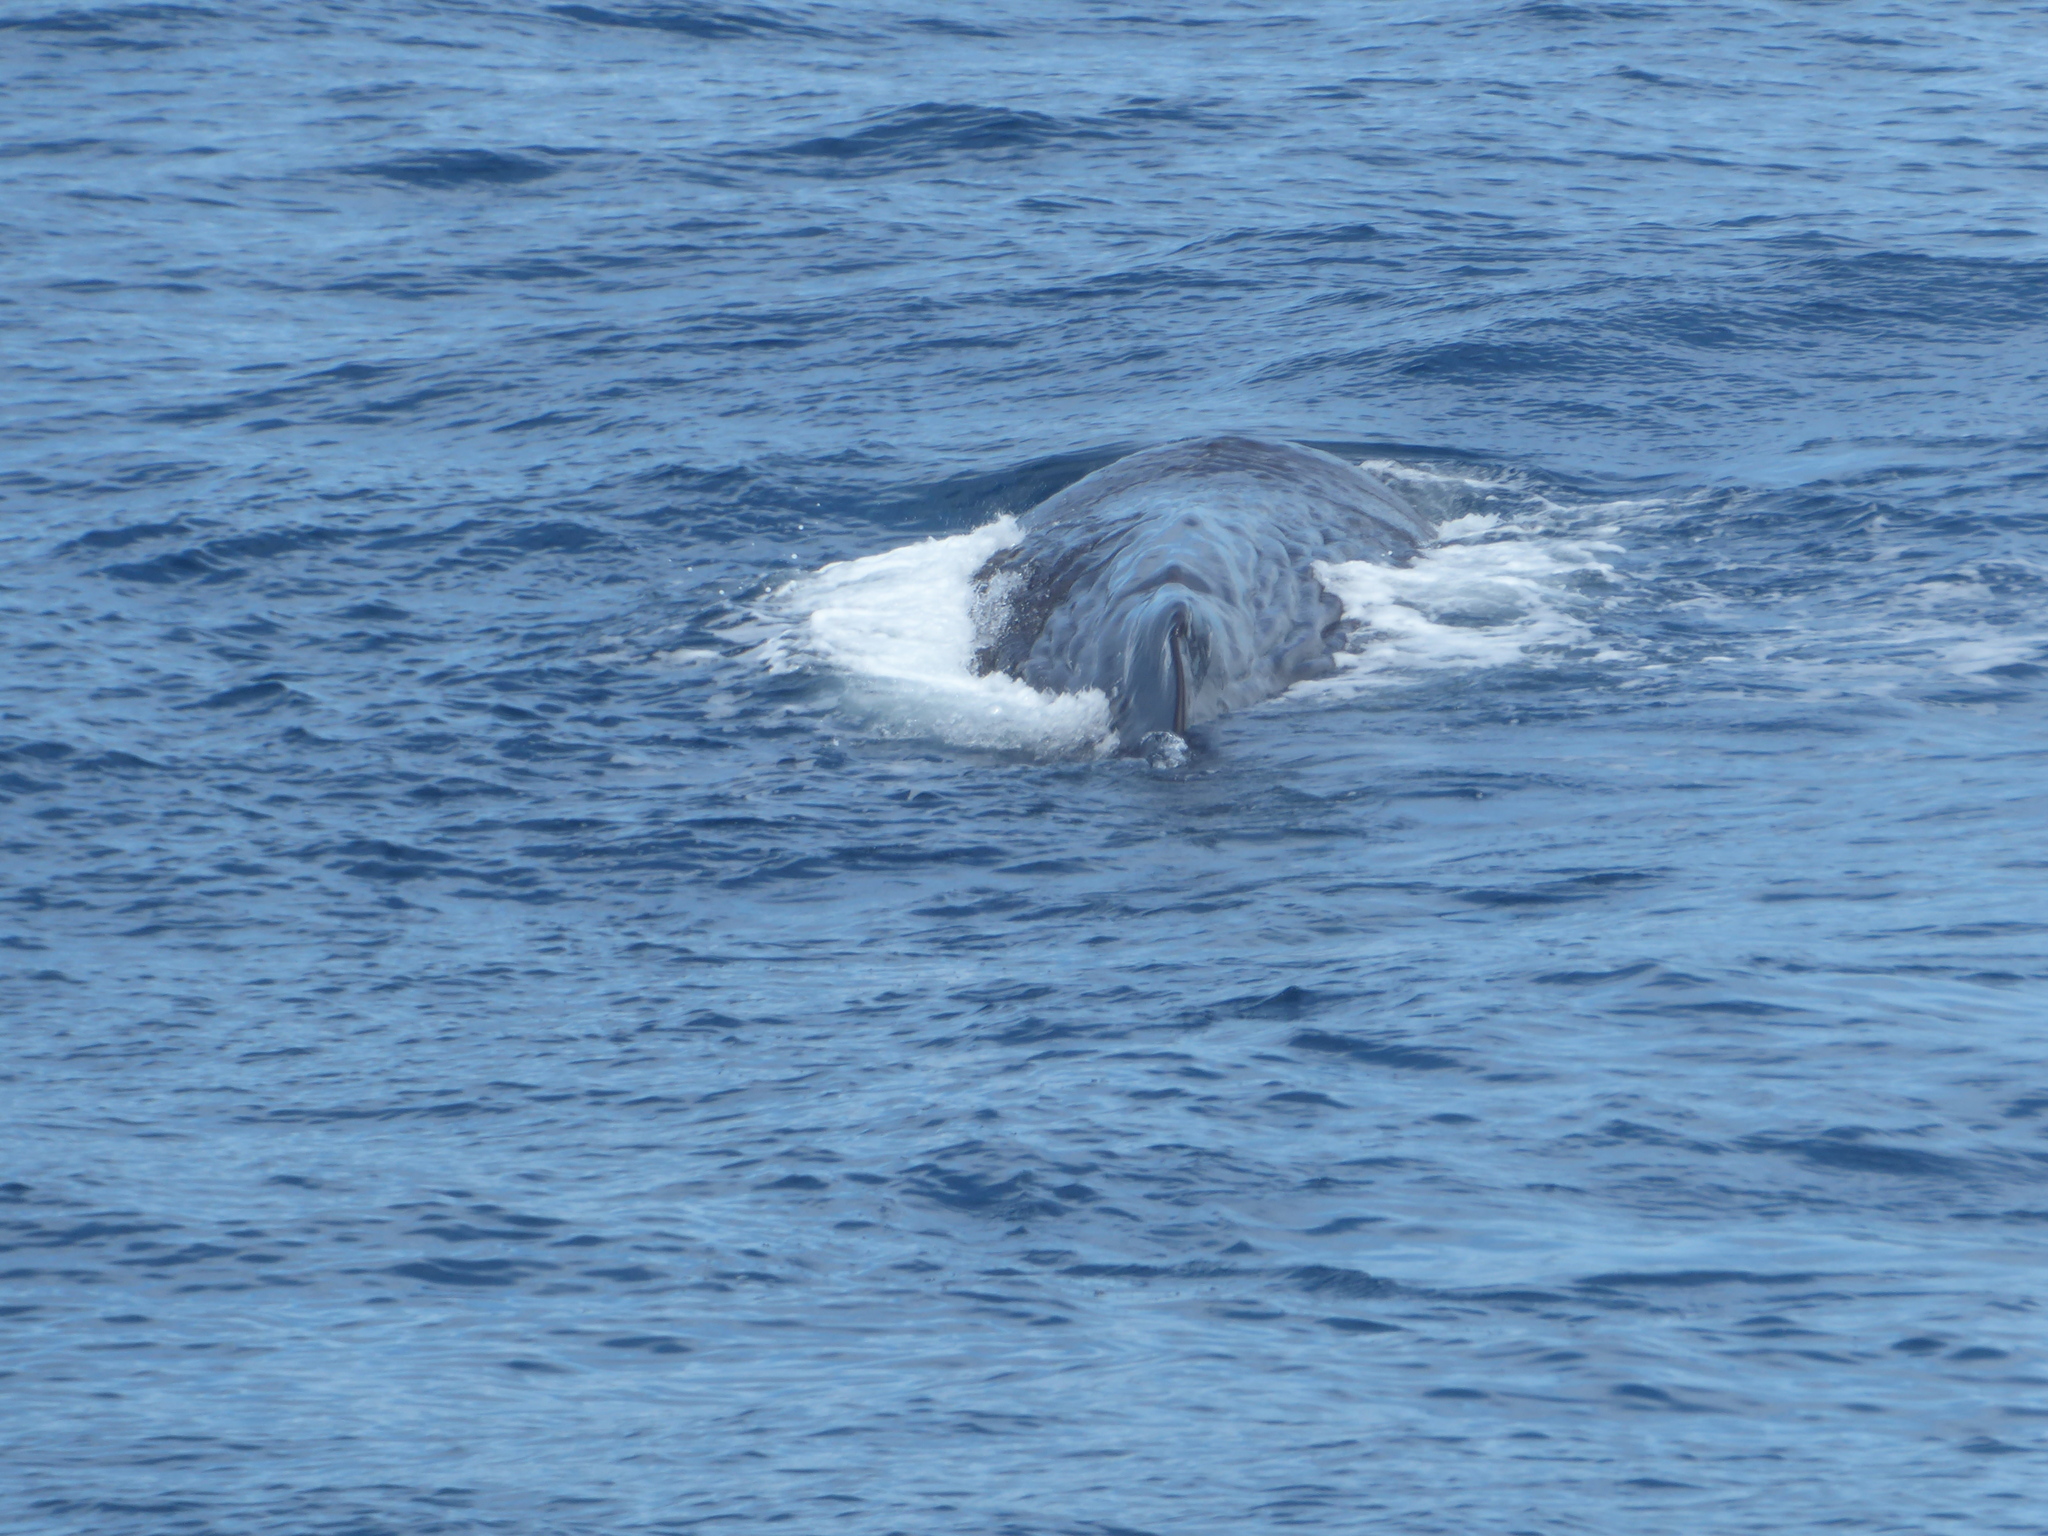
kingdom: Animalia
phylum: Chordata
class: Mammalia
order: Cetacea
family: Physeteridae
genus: Physeter
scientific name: Physeter macrocephalus
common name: Sperm whale
